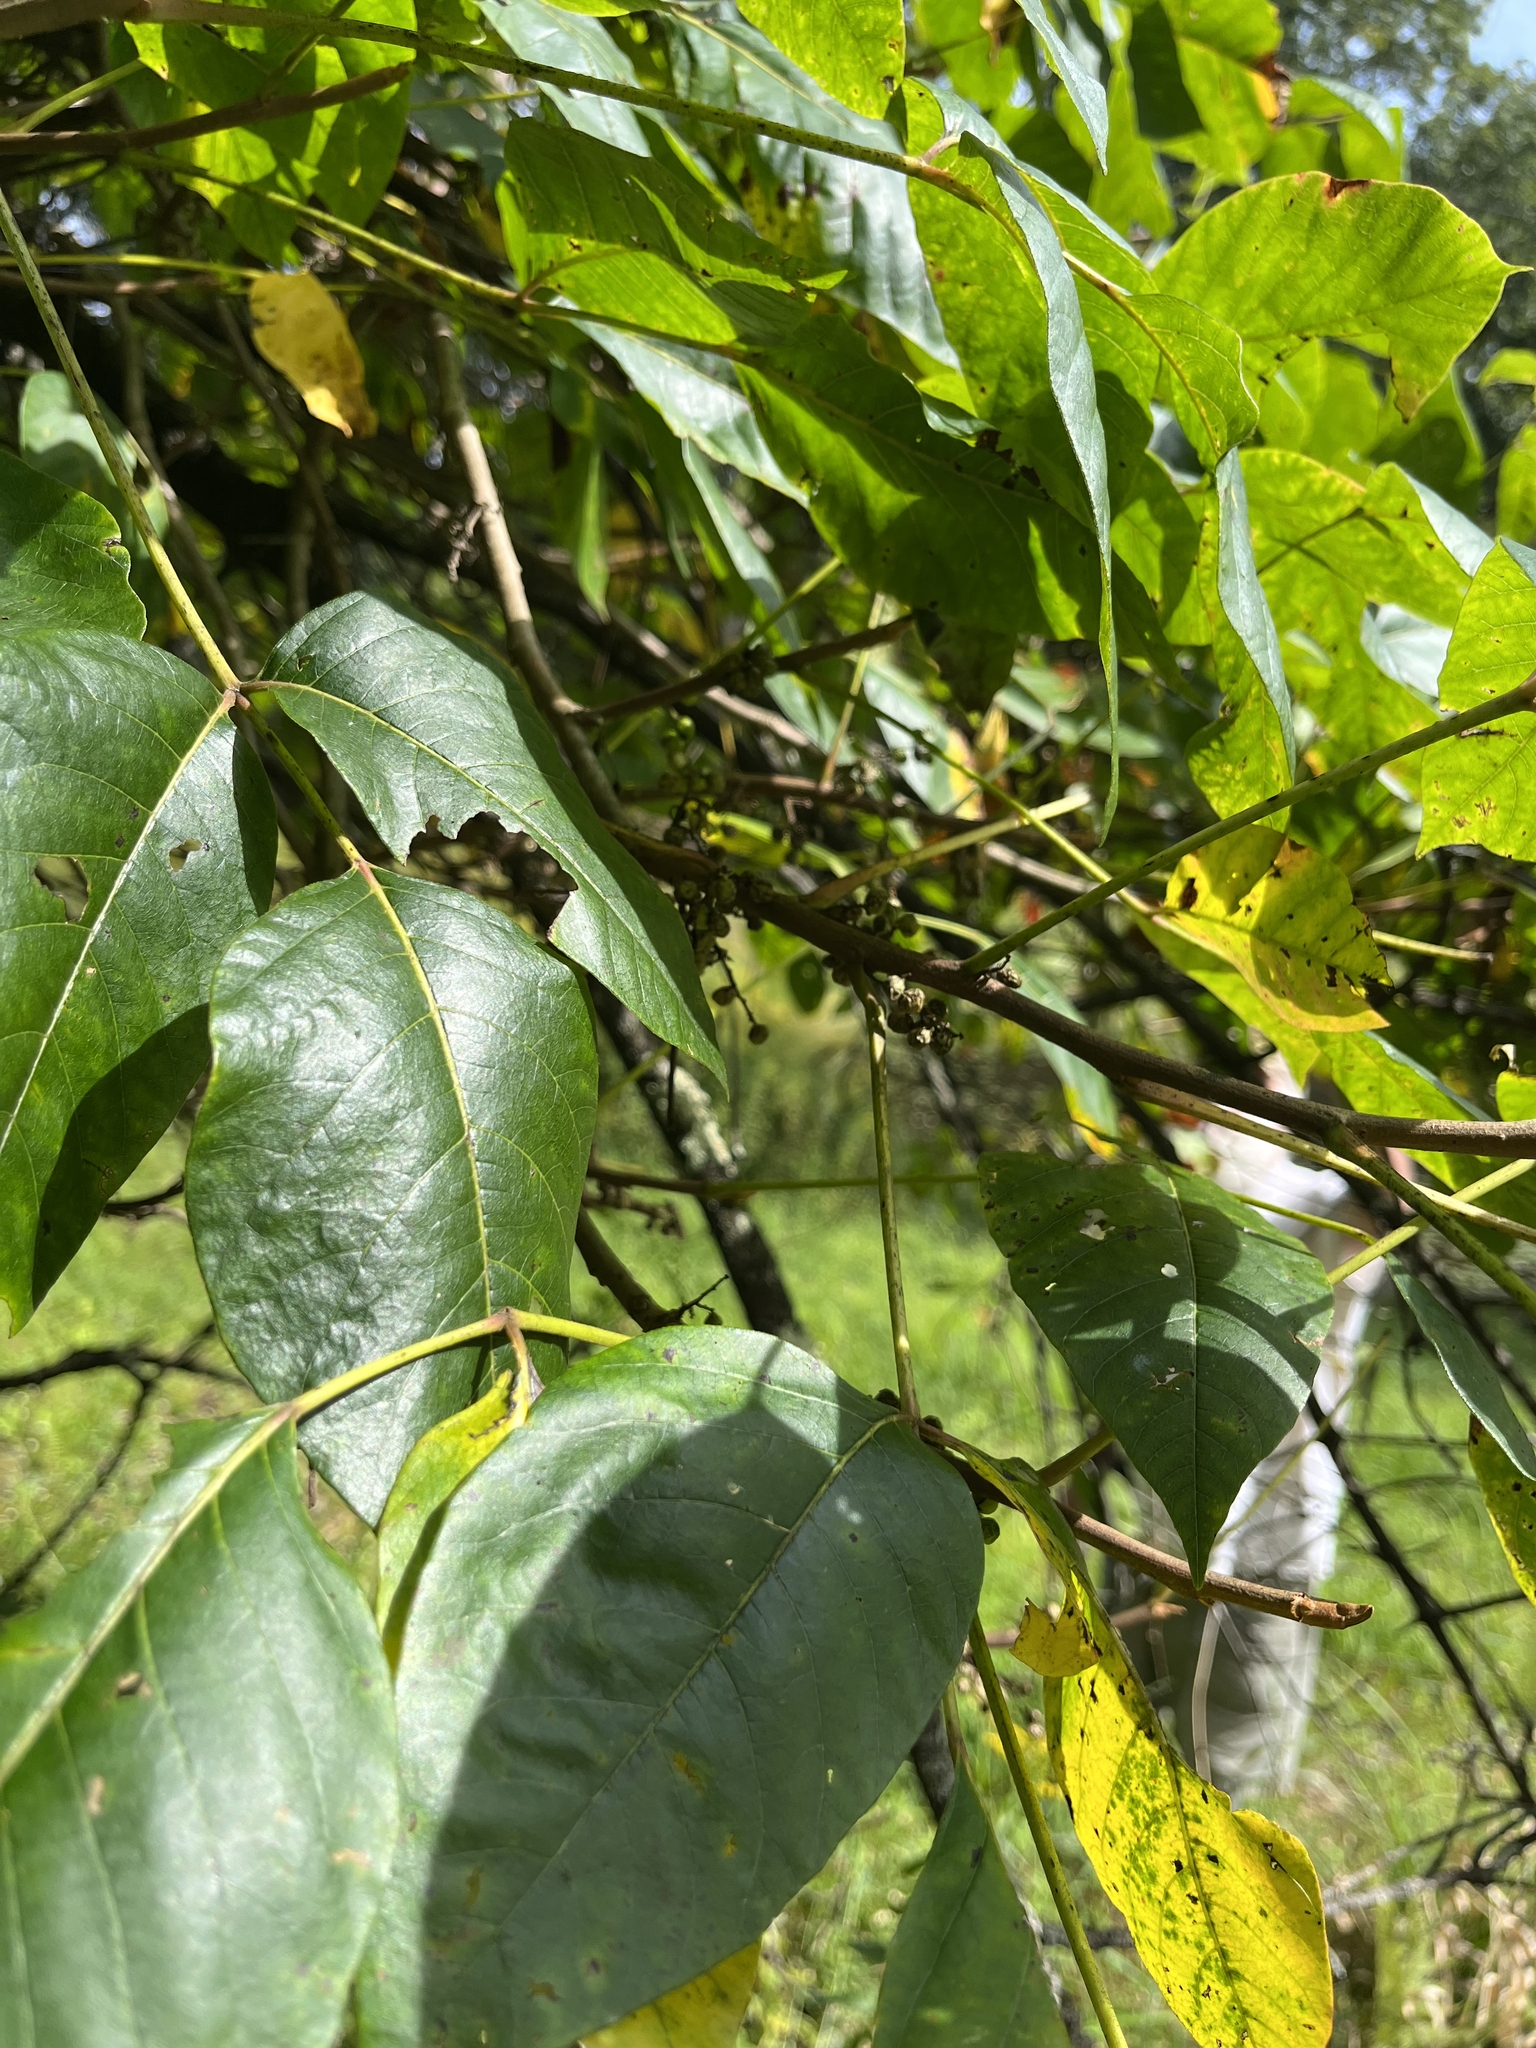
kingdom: Plantae
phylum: Tracheophyta
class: Magnoliopsida
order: Sapindales
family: Anacardiaceae
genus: Toxicodendron
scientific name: Toxicodendron radicans
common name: Poison ivy
